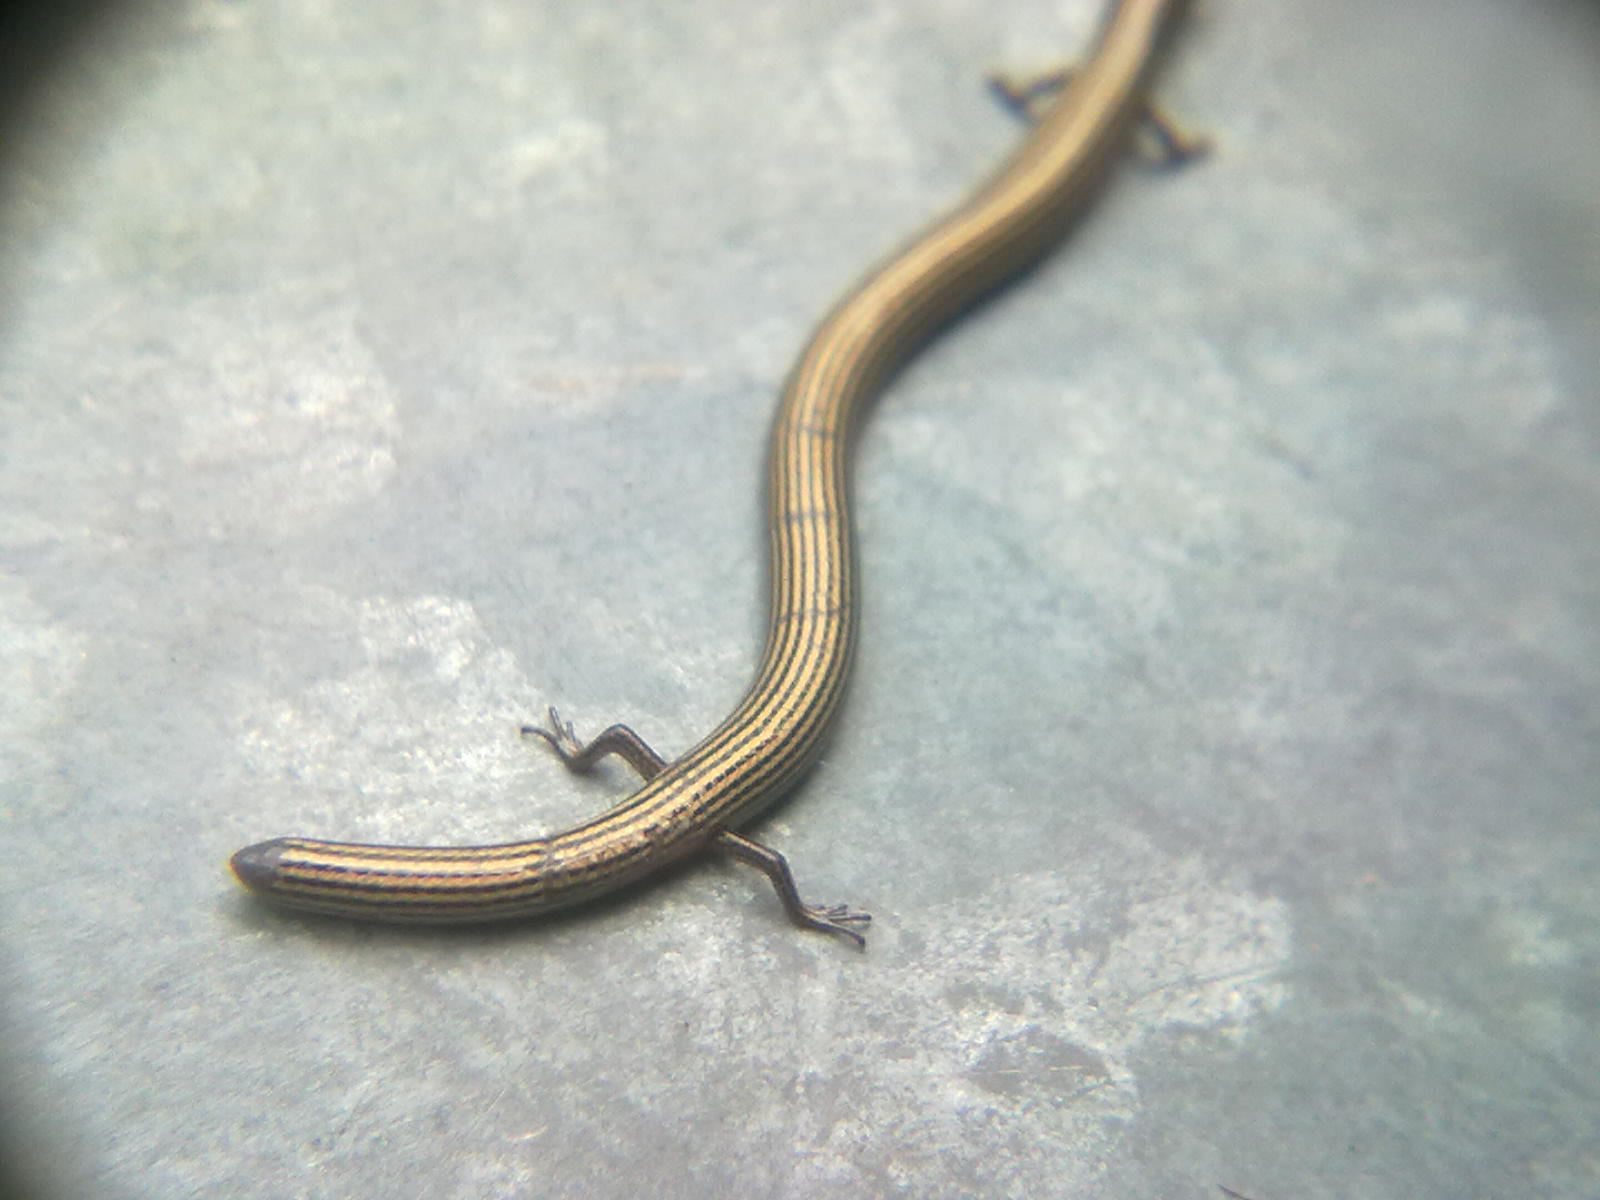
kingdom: Animalia
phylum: Chordata
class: Squamata
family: Scincidae
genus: Riopa
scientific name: Riopa lineata
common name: Lined supple skink
